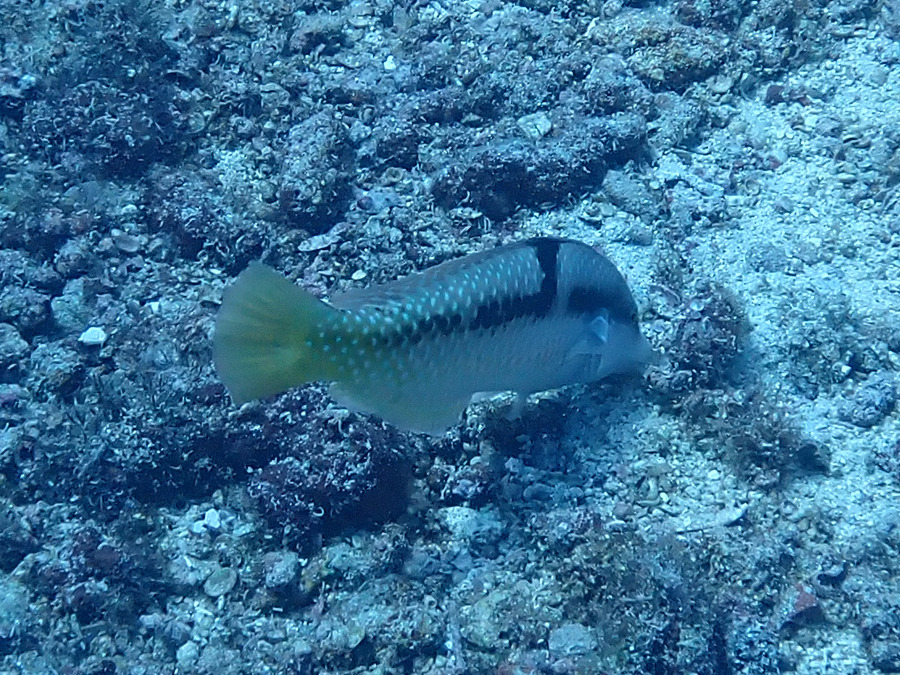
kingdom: Animalia
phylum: Chordata
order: Perciformes
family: Labridae
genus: Halichoeres
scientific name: Halichoeres nicholsi
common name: Spinster wrasse
